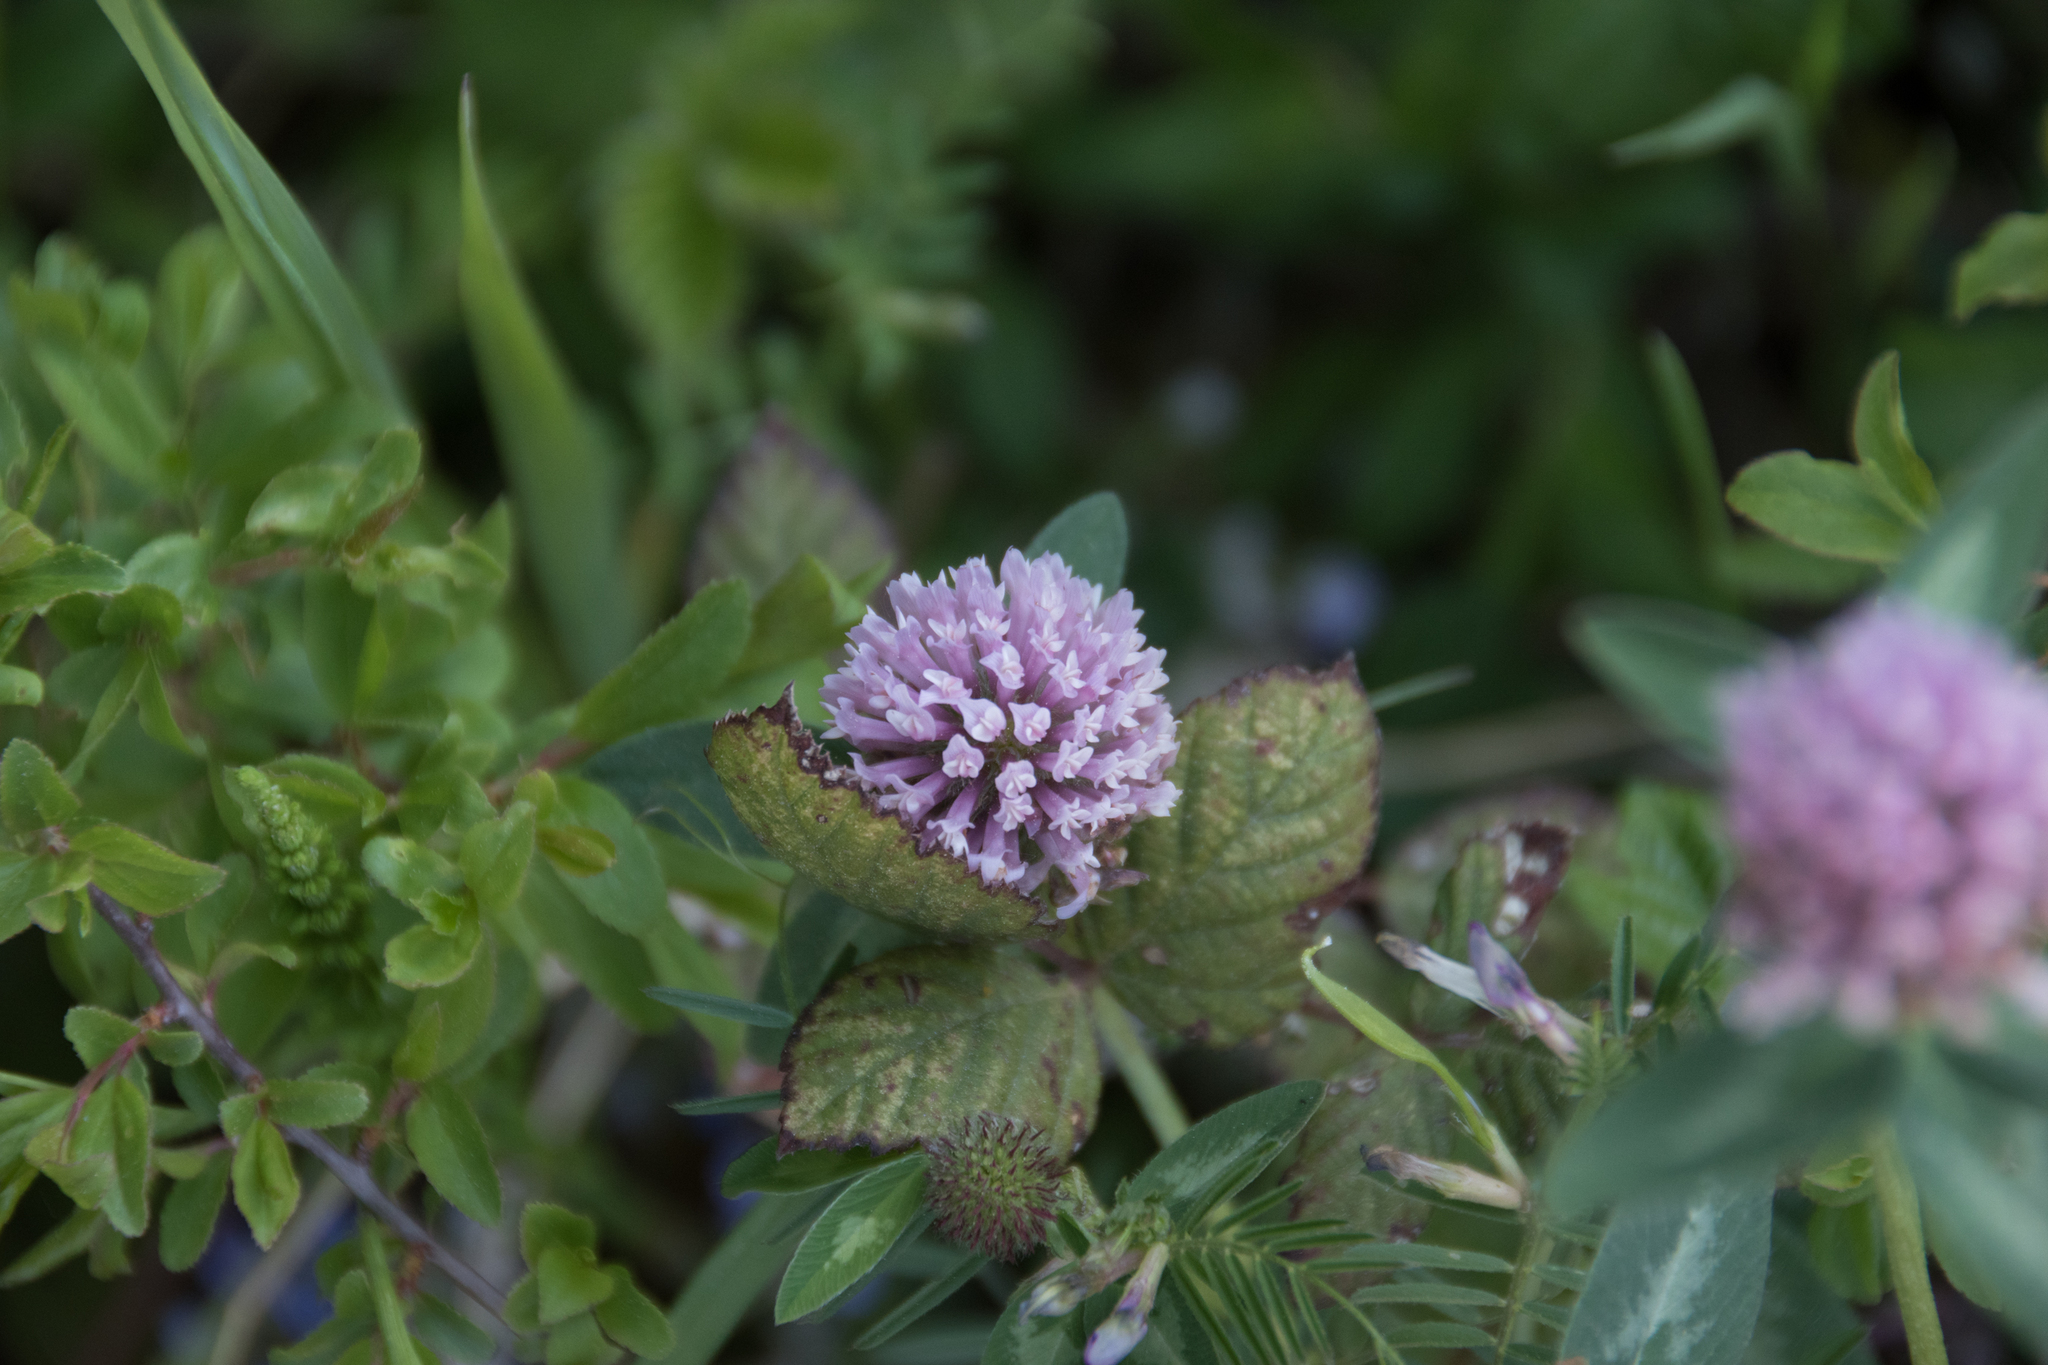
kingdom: Plantae
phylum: Tracheophyta
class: Magnoliopsida
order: Fabales
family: Fabaceae
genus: Trifolium
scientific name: Trifolium pratense
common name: Red clover
